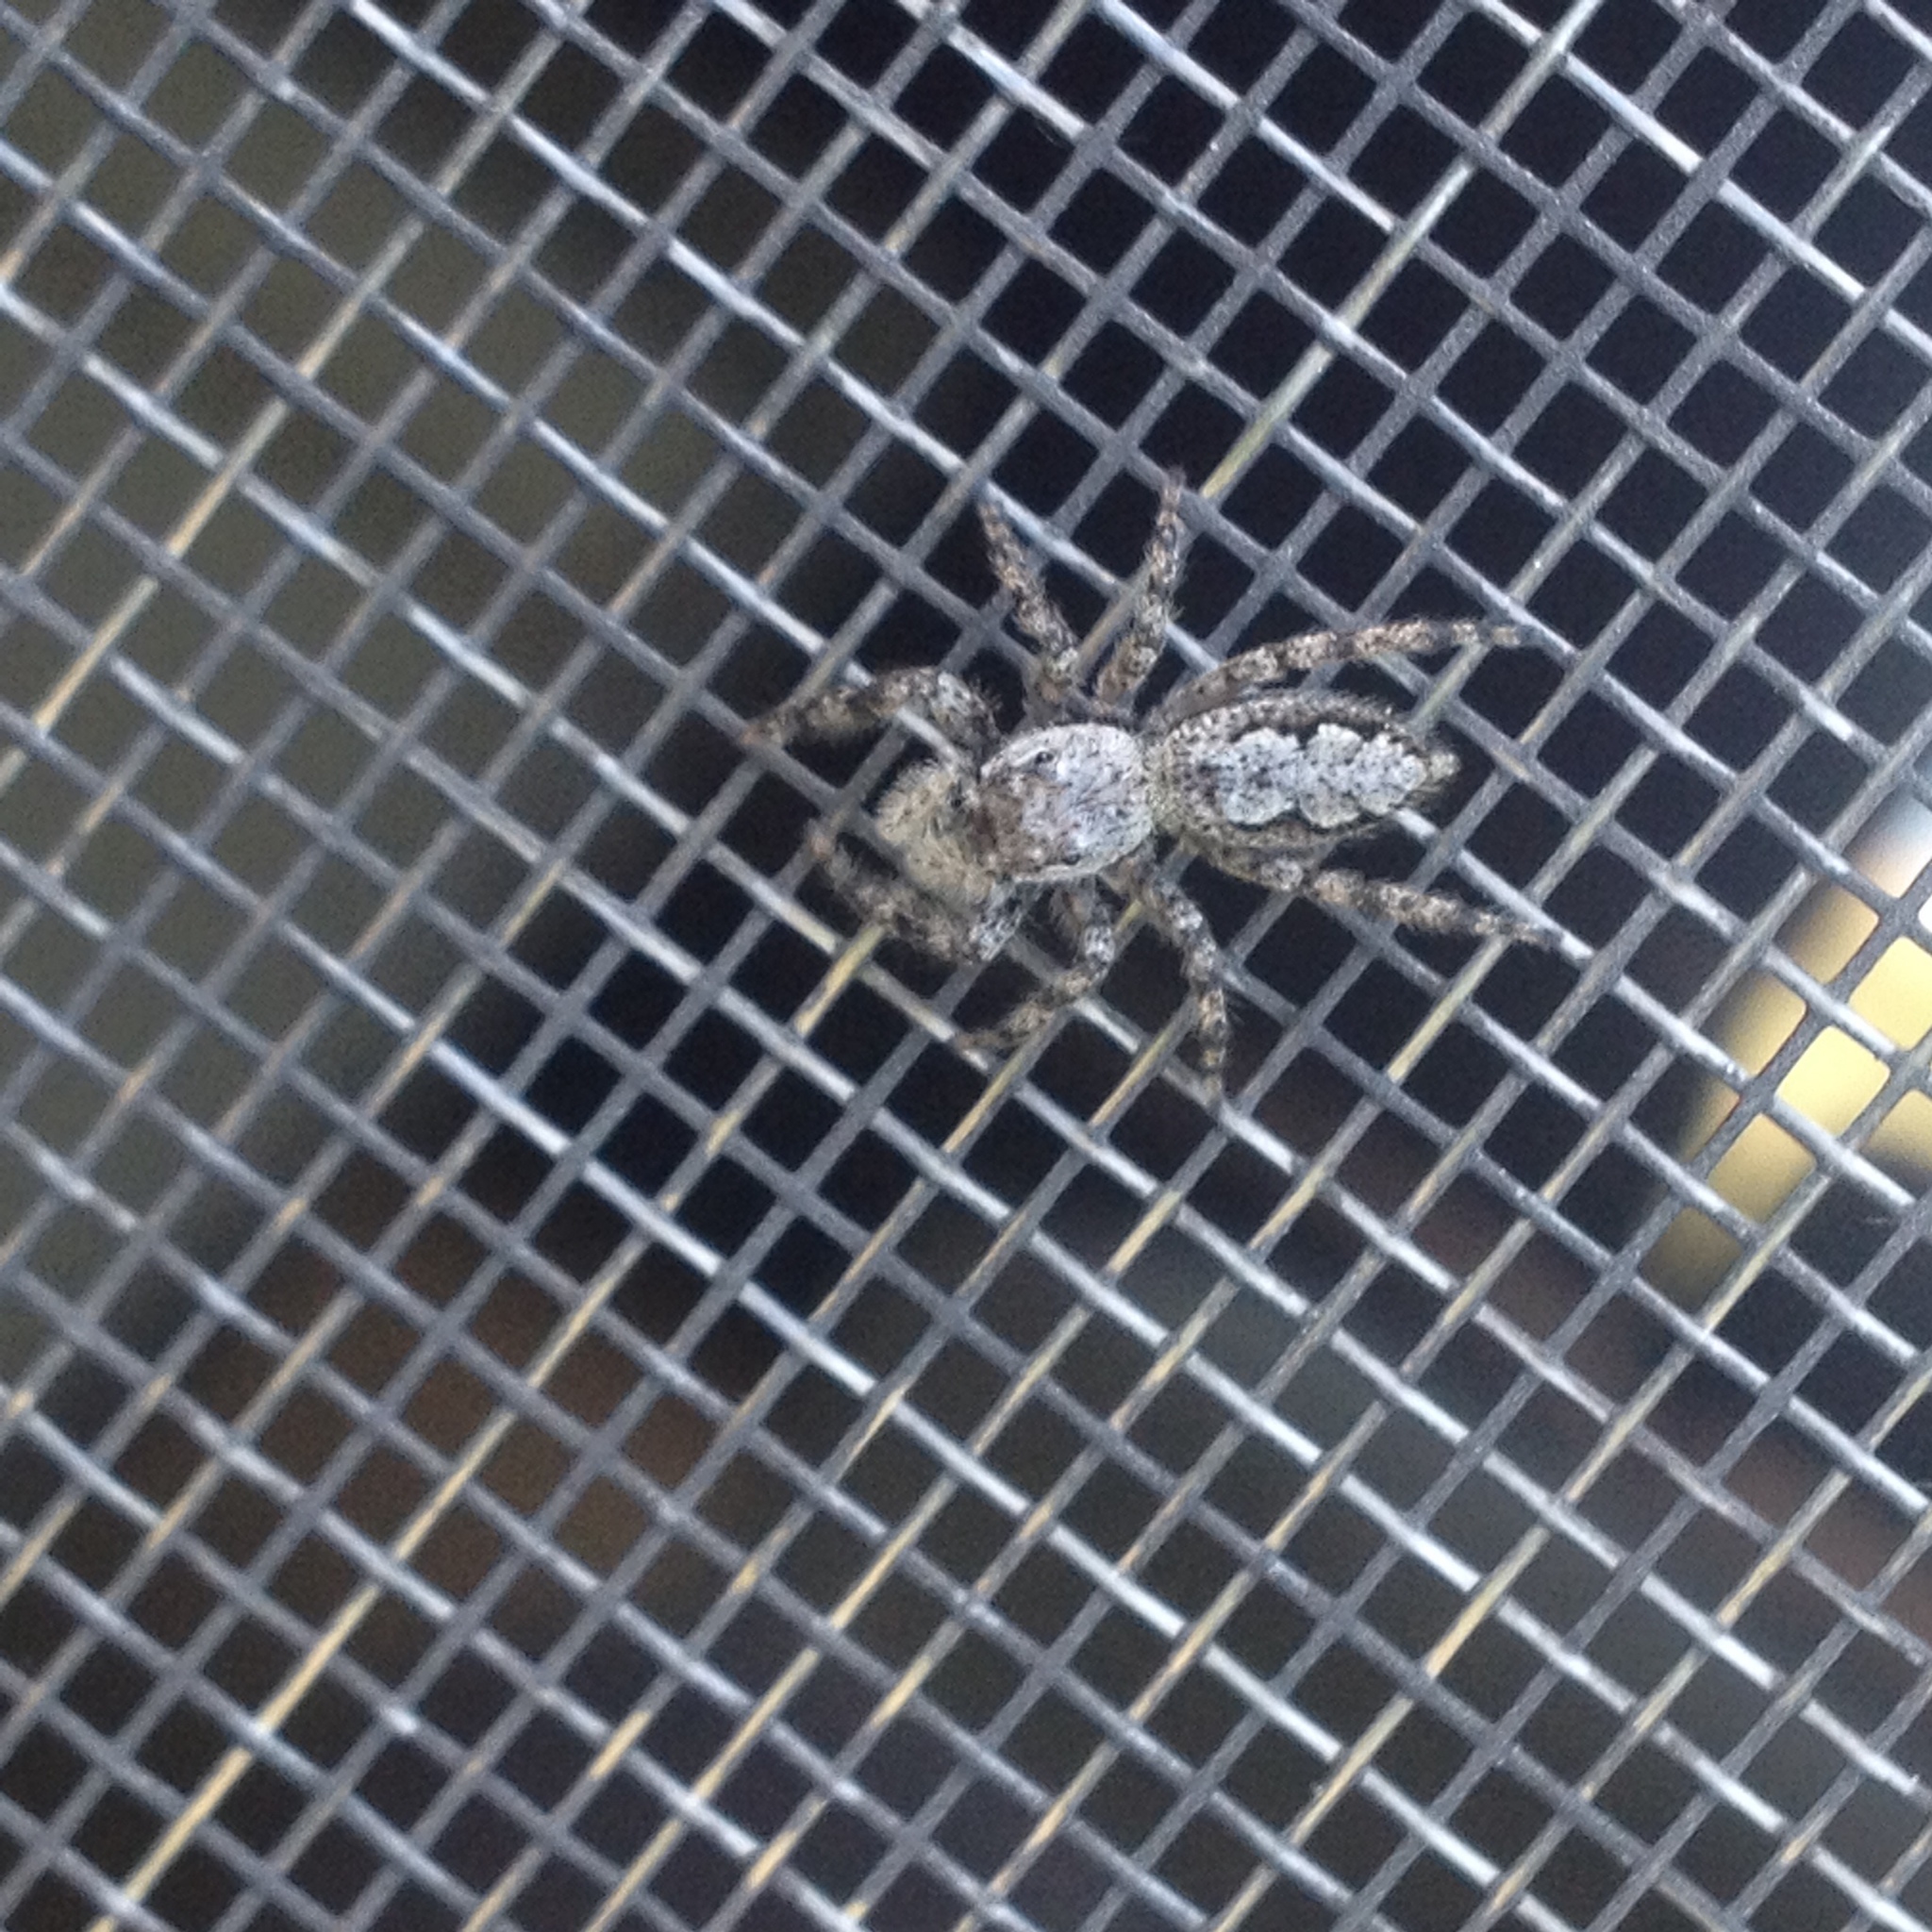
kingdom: Animalia
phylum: Arthropoda
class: Arachnida
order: Araneae
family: Salticidae
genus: Platycryptus
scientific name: Platycryptus undatus
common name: Tan jumping spider
